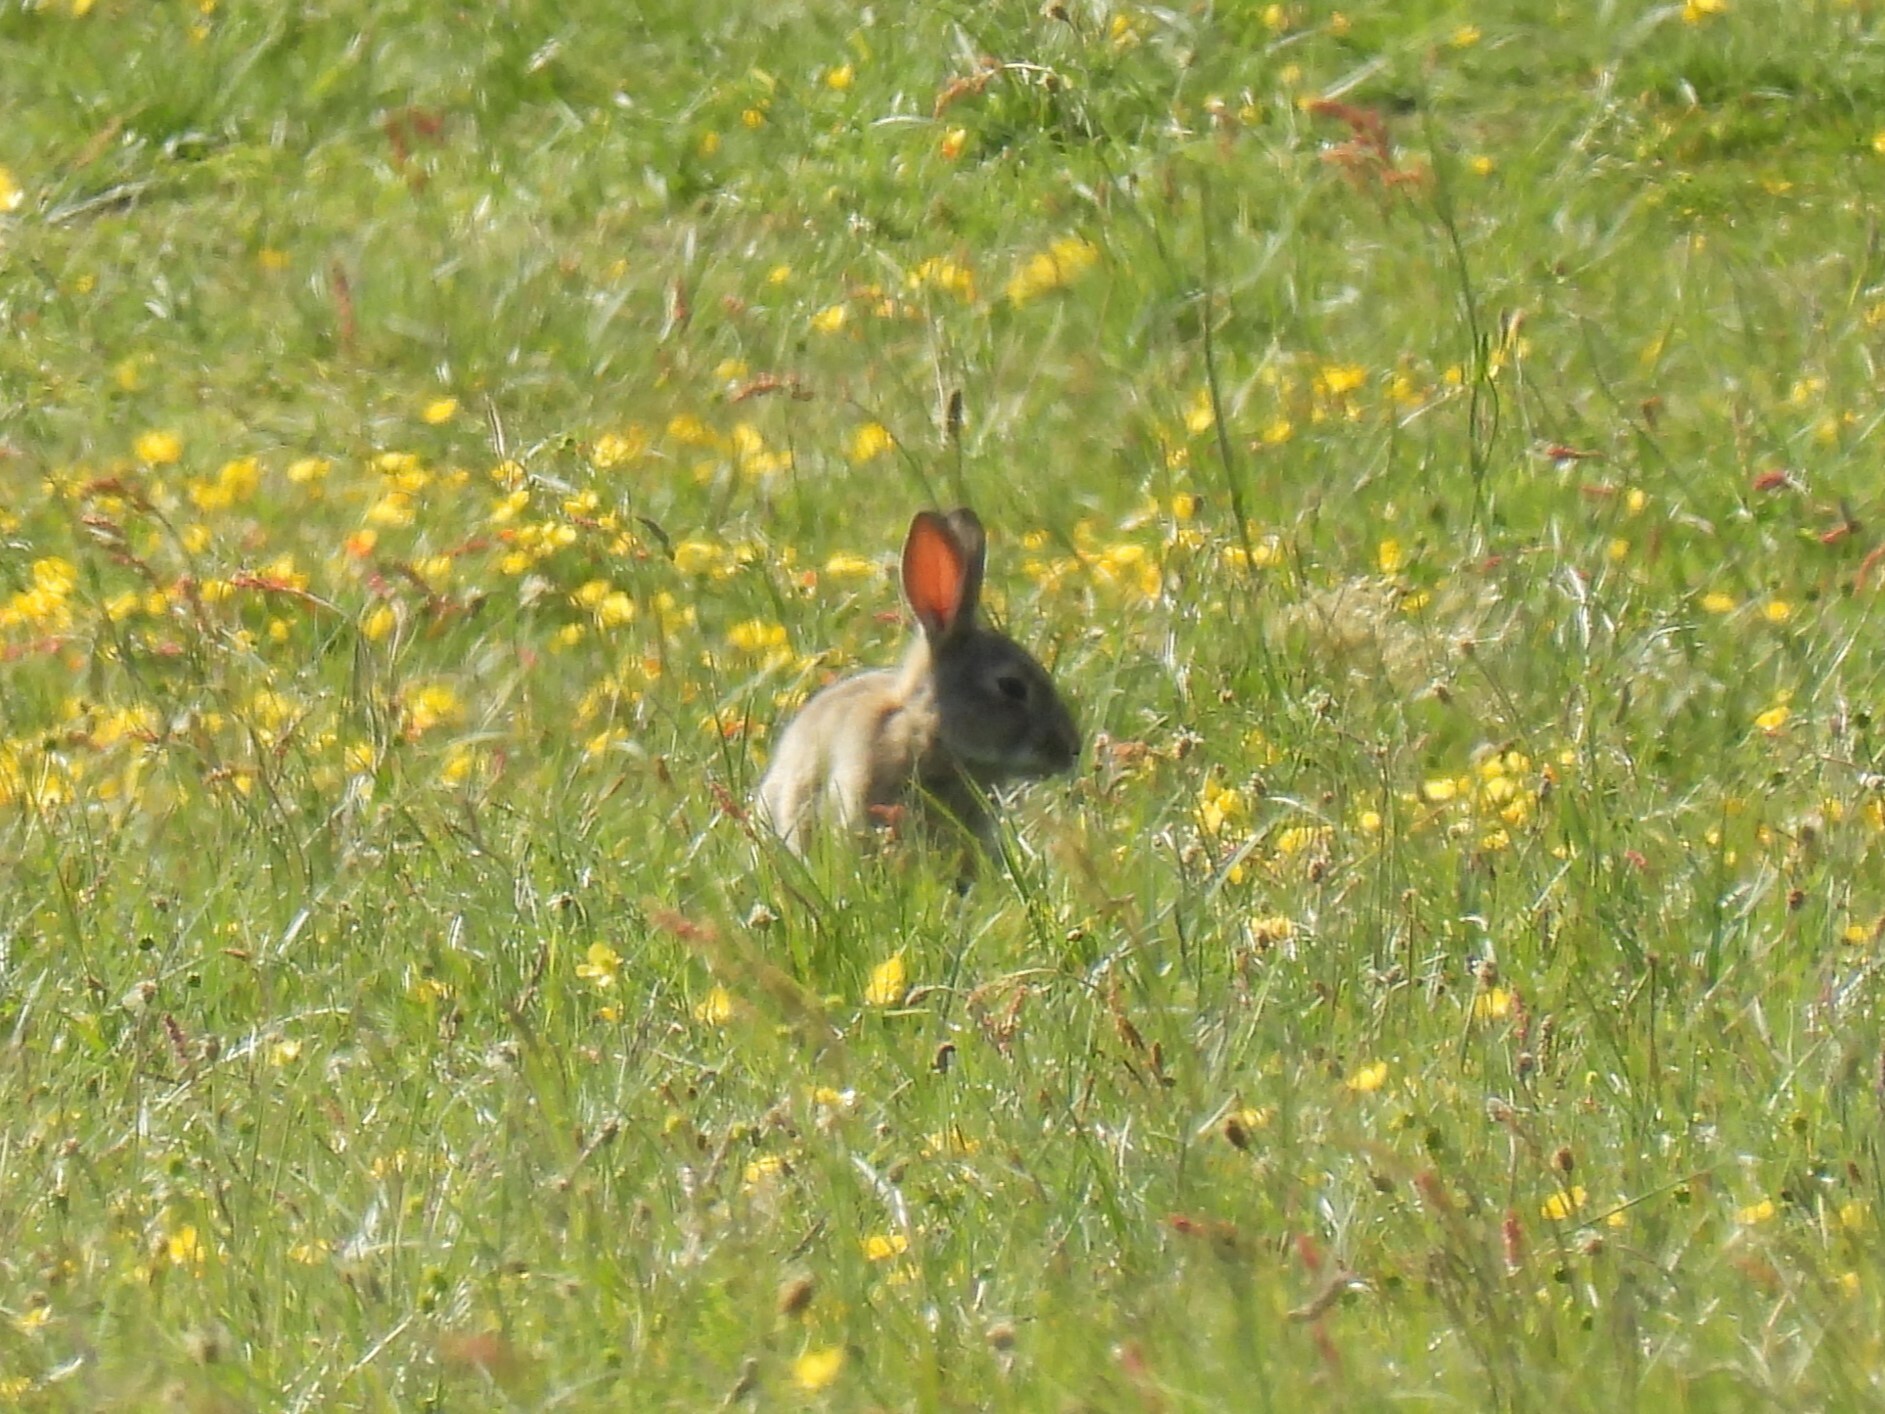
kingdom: Animalia
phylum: Chordata
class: Mammalia
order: Lagomorpha
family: Leporidae
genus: Oryctolagus
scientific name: Oryctolagus cuniculus
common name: European rabbit
